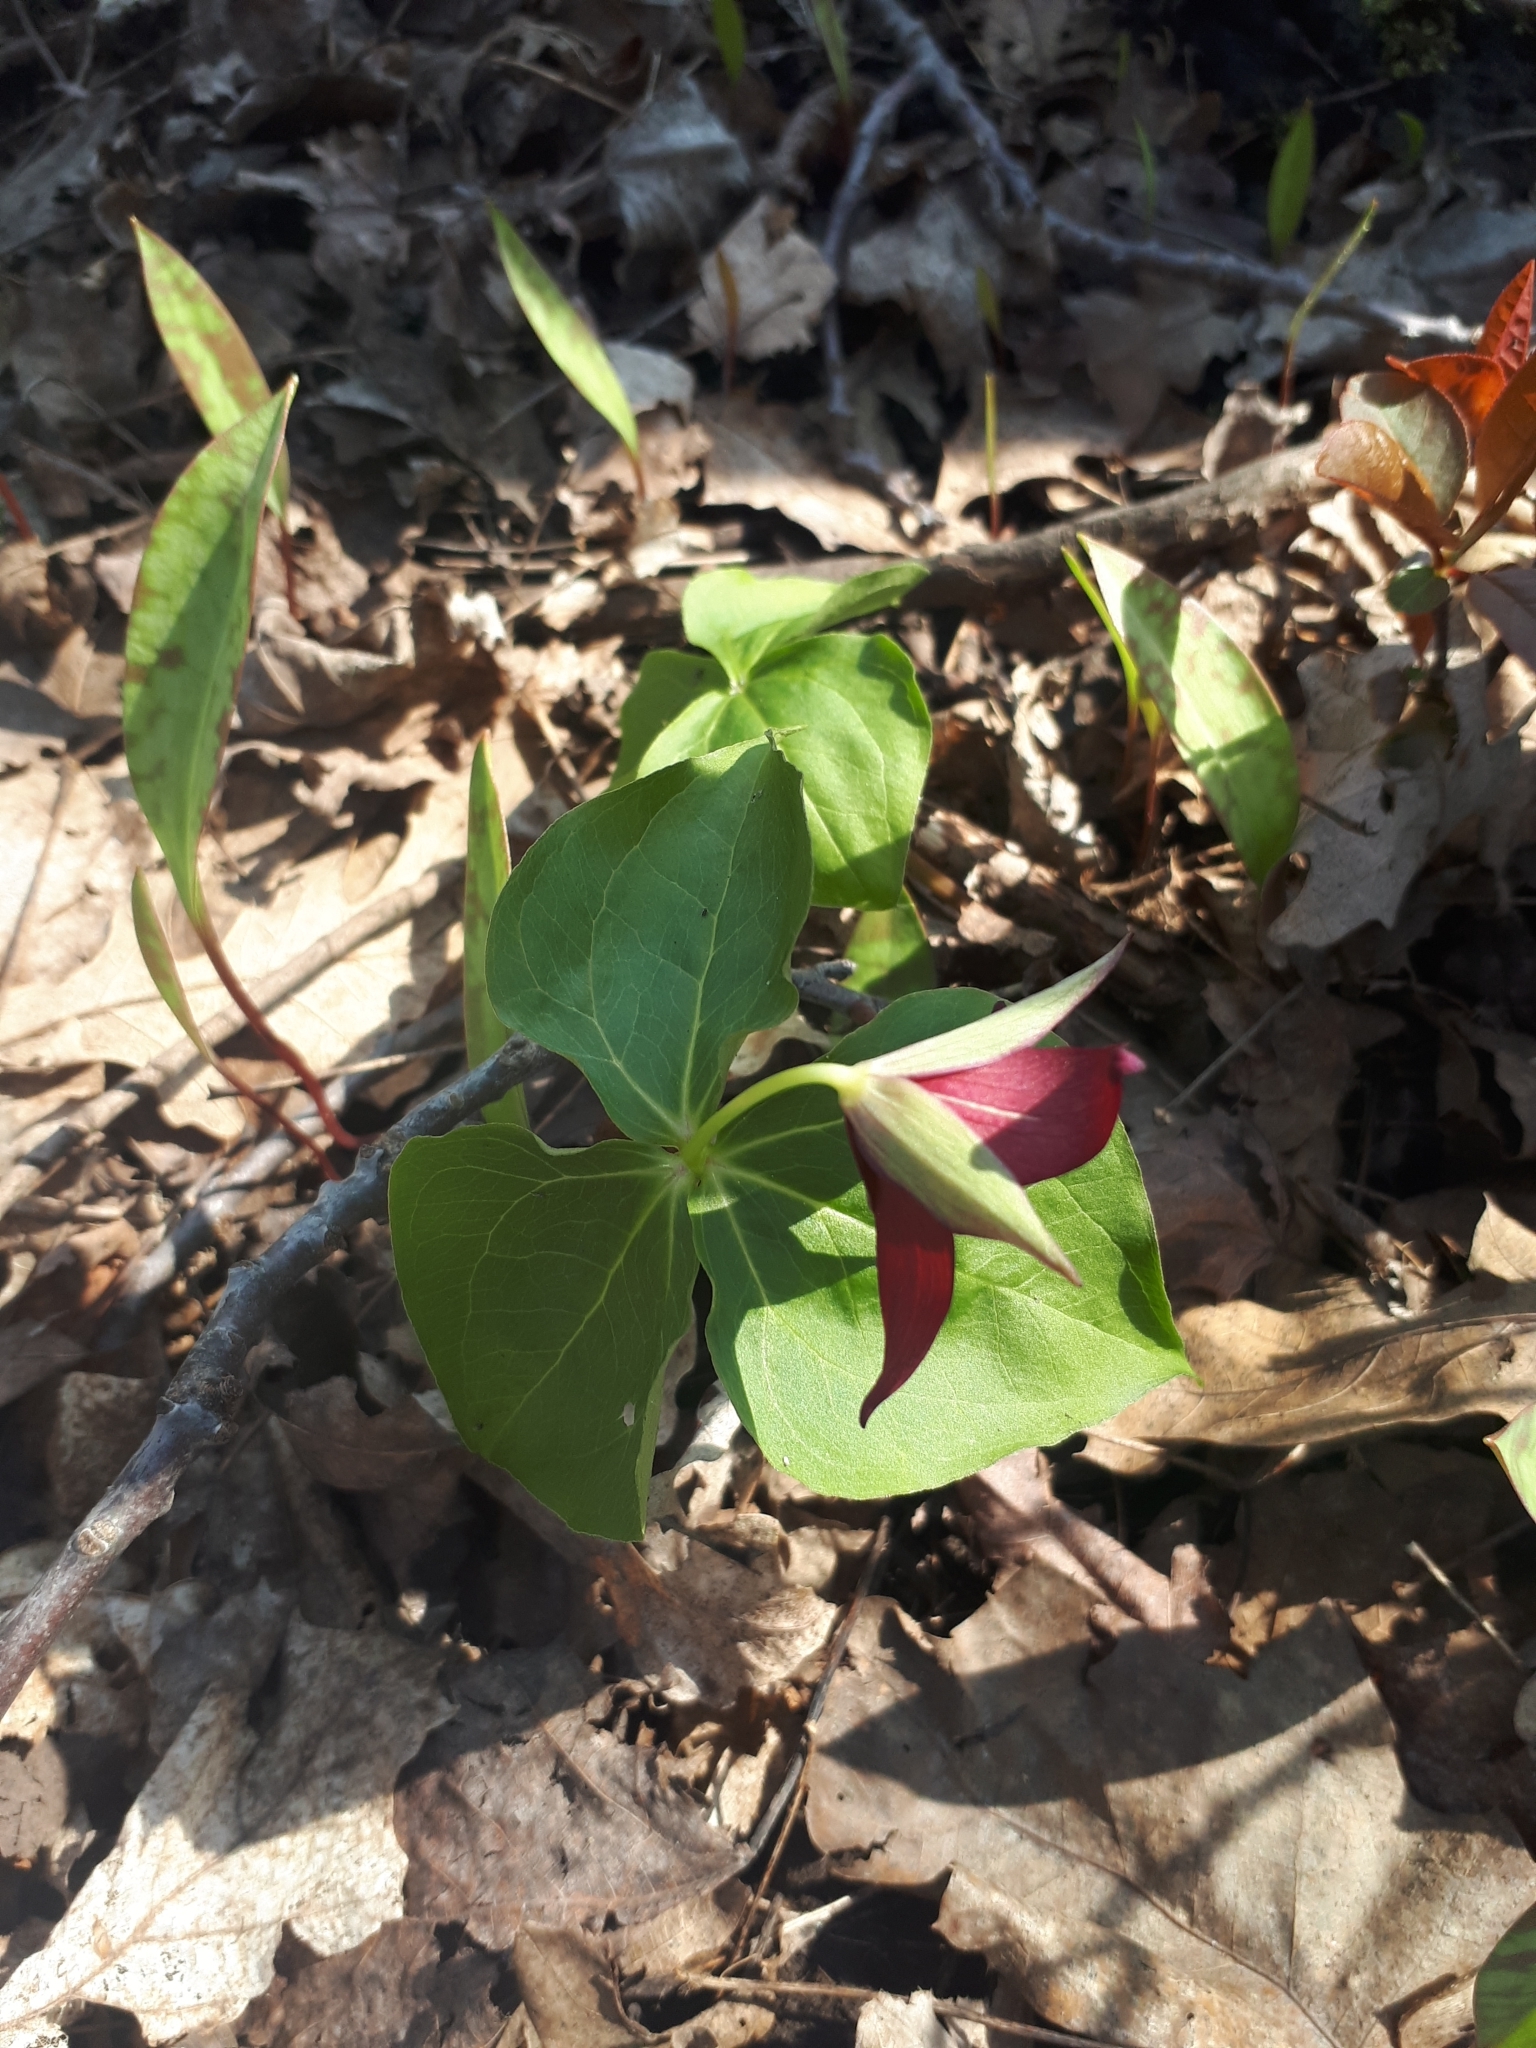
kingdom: Plantae
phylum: Tracheophyta
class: Liliopsida
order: Liliales
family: Melanthiaceae
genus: Trillium
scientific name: Trillium erectum
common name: Purple trillium
